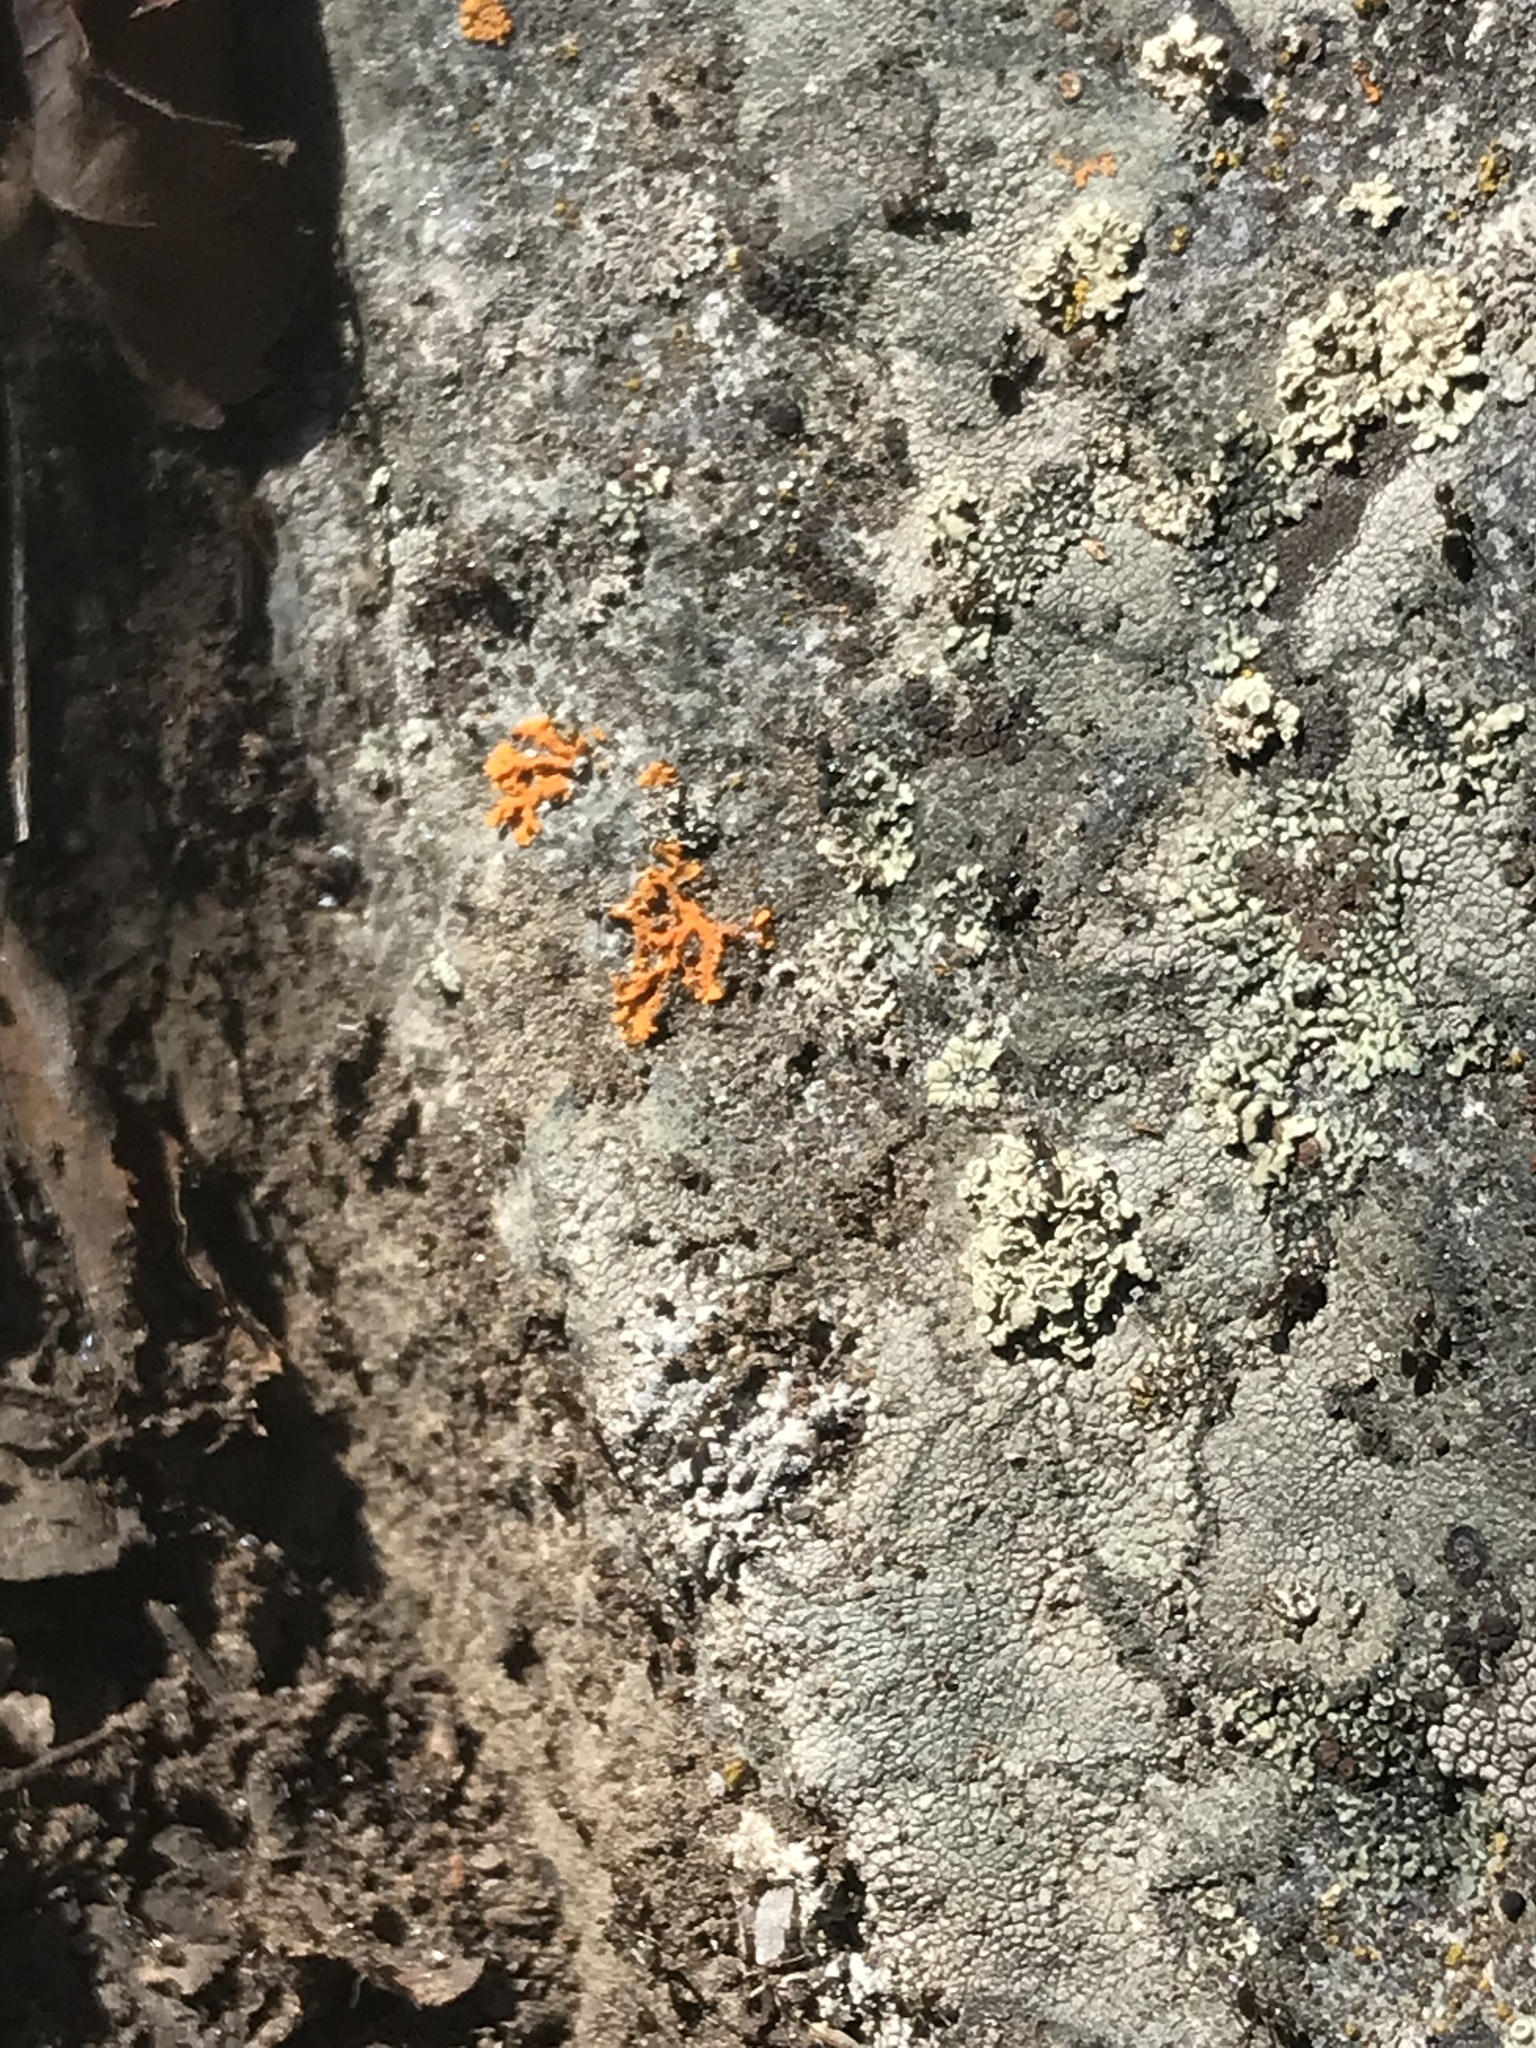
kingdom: Animalia
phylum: Arthropoda
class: Insecta
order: Hymenoptera
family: Formicidae
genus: Tapinoma
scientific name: Tapinoma sessile
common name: Odorous house ant
